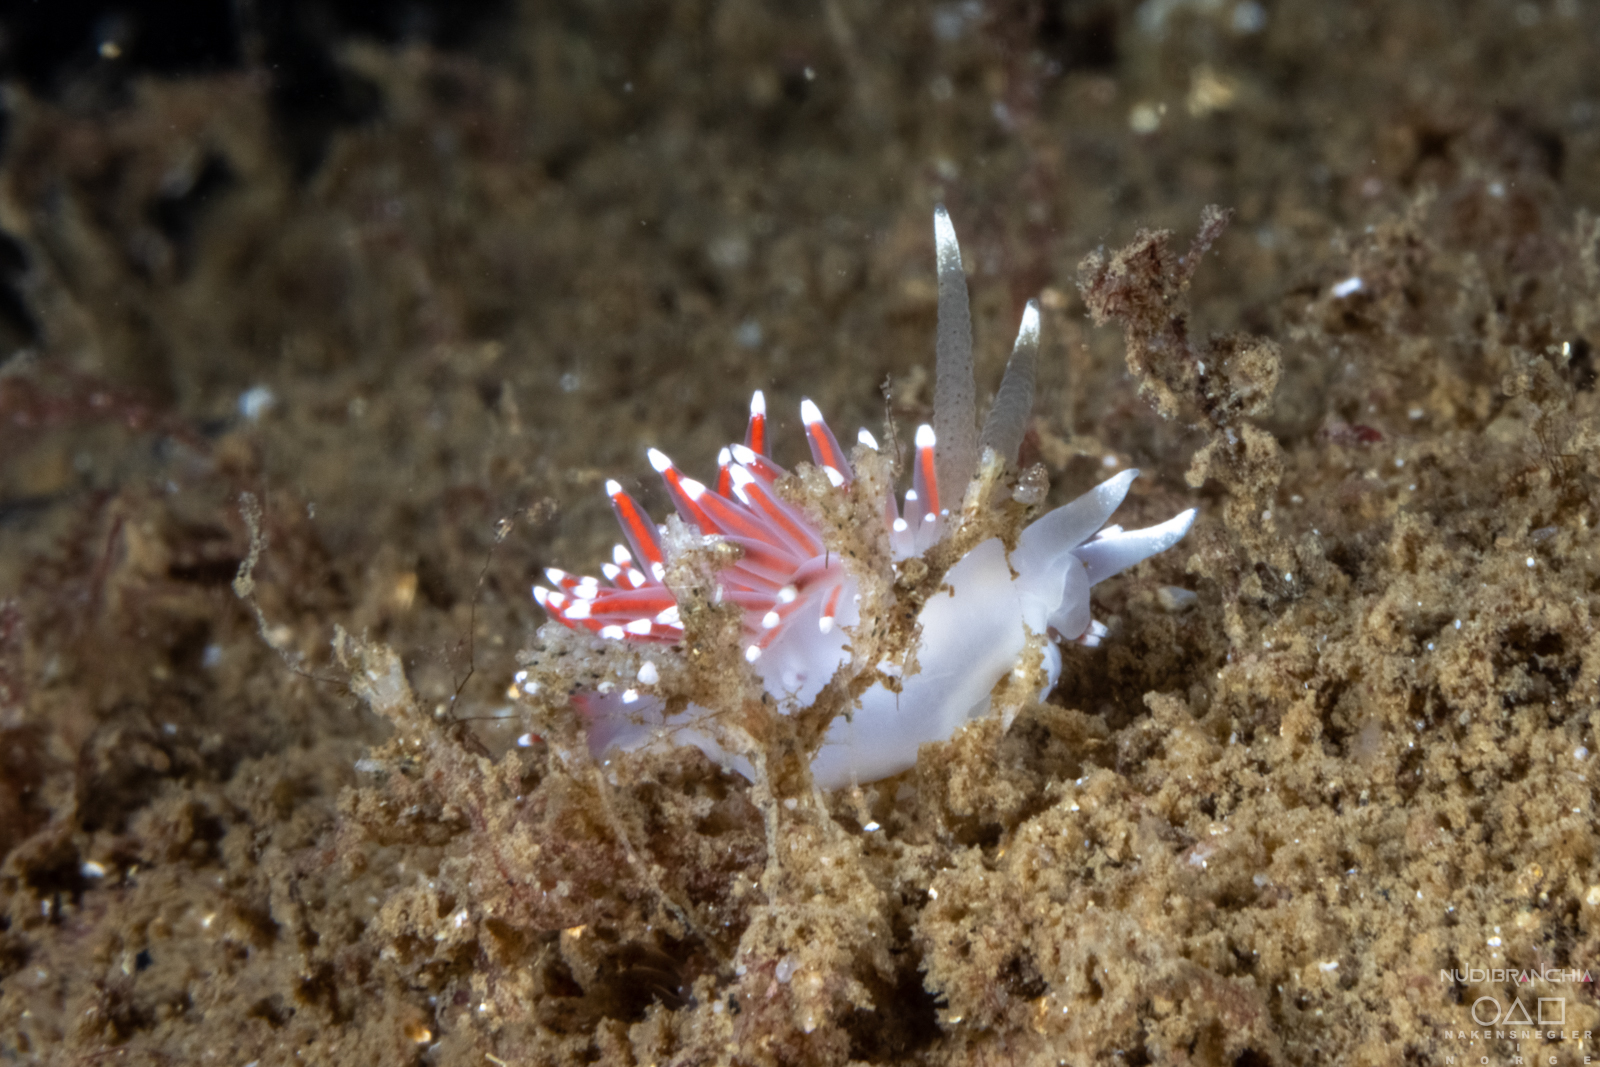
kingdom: Animalia
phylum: Mollusca
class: Gastropoda
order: Nudibranchia
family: Coryphellidae
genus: Coryphella
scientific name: Coryphella browni
